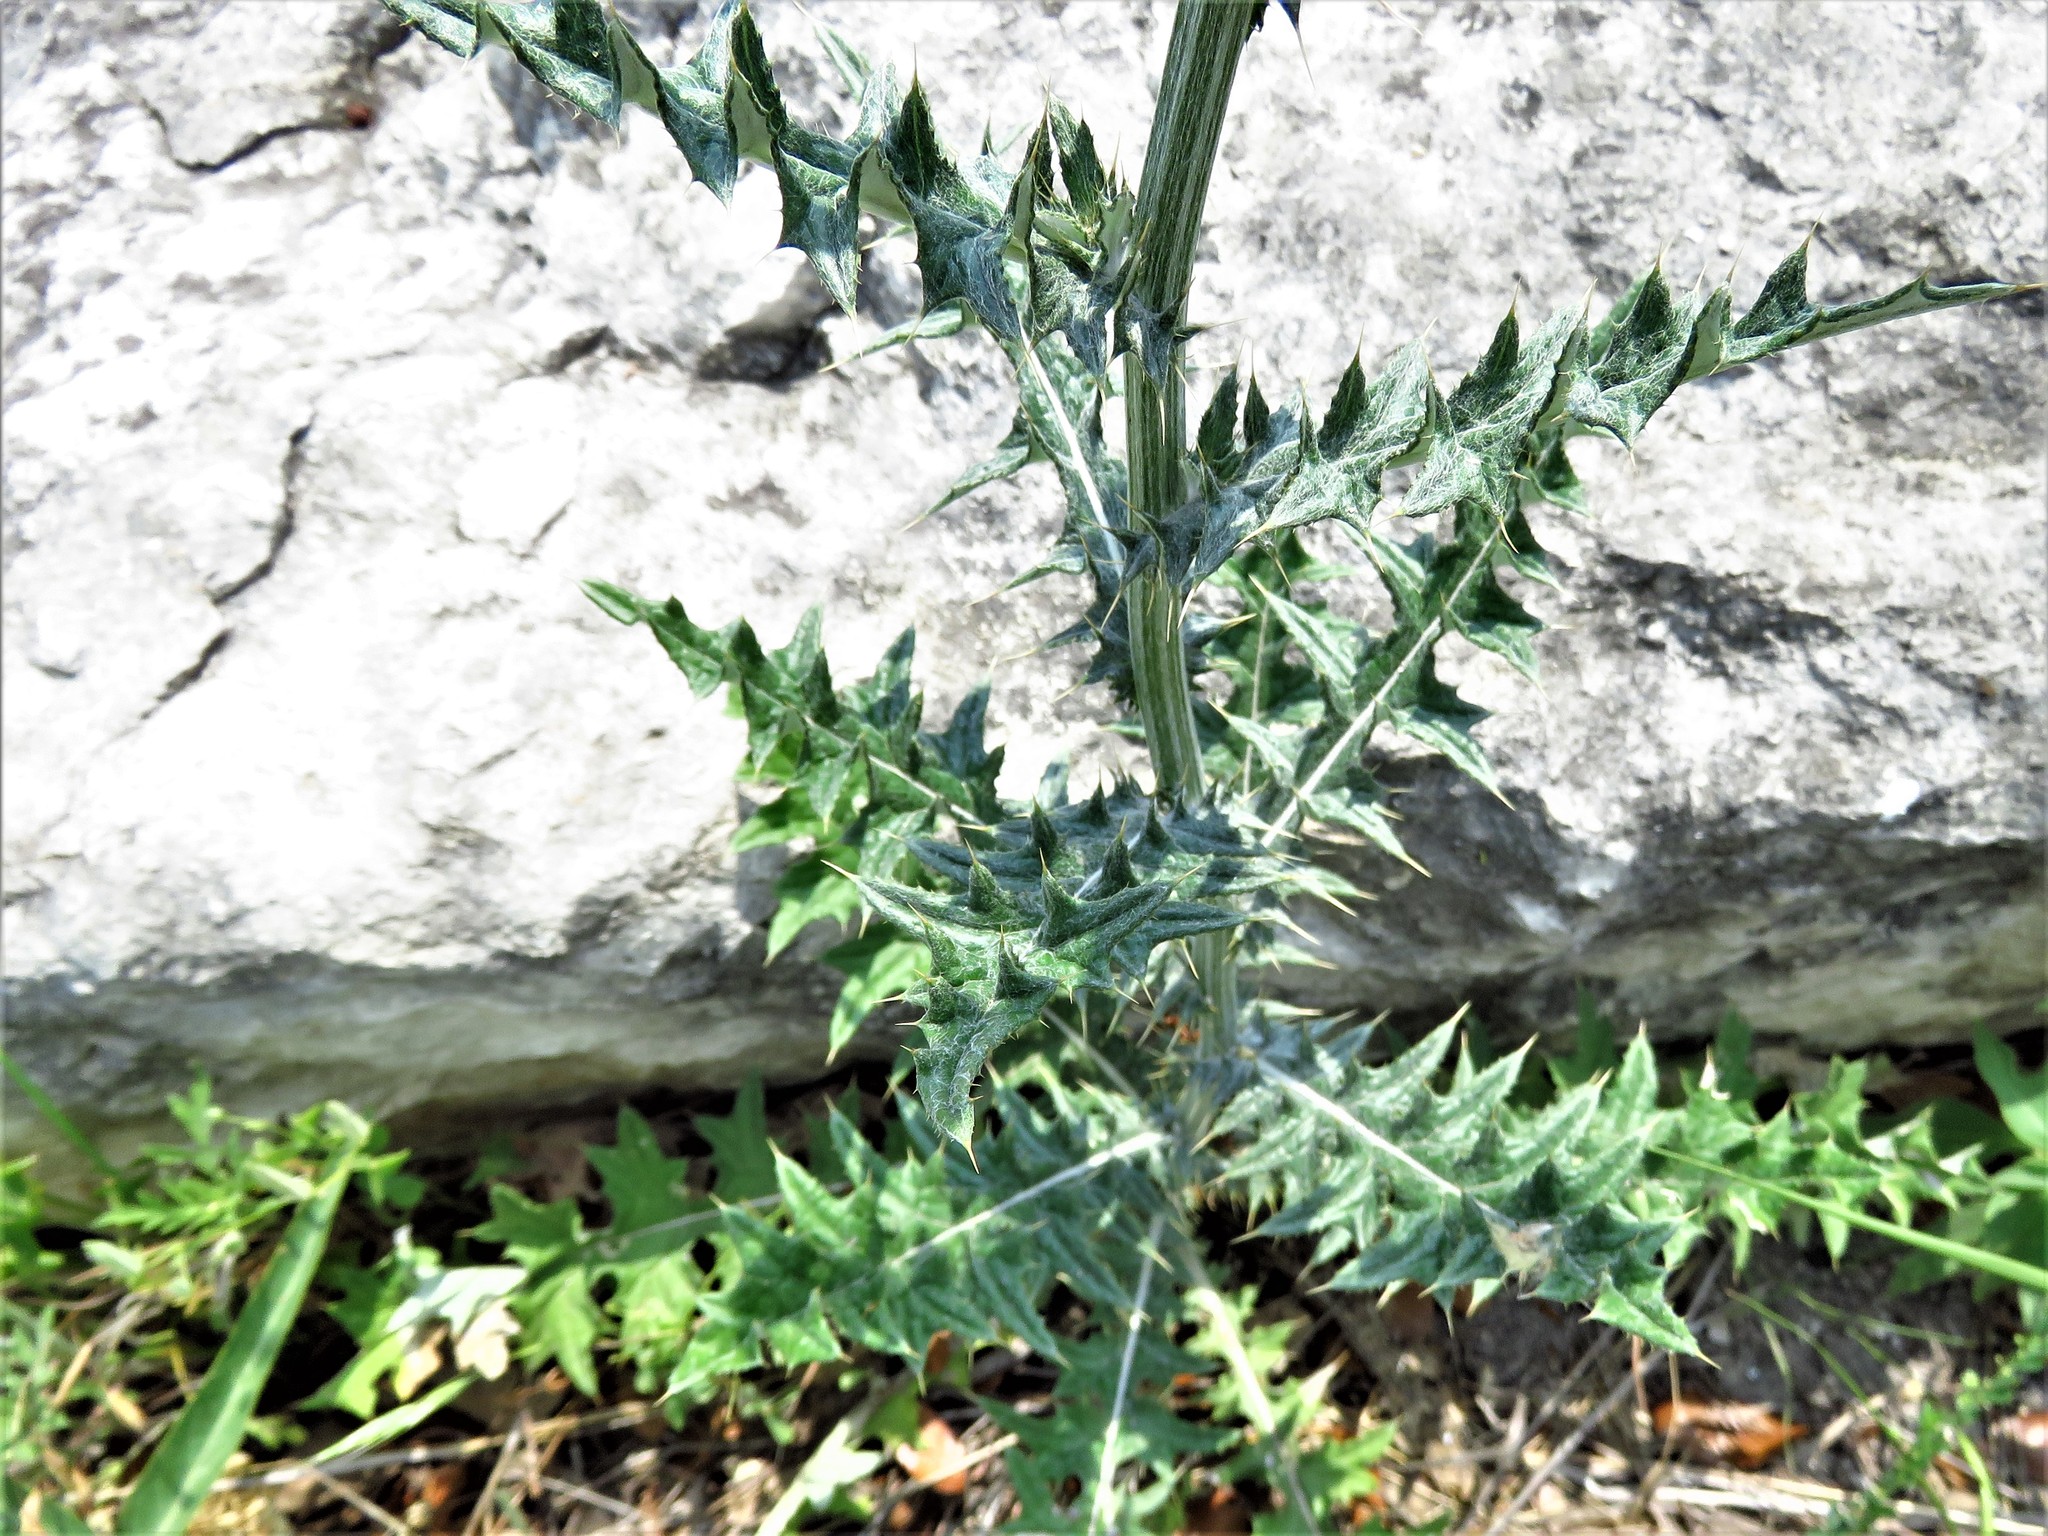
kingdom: Plantae
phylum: Tracheophyta
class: Magnoliopsida
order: Asterales
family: Asteraceae
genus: Cirsium
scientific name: Cirsium texanum
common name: Texas purple thistle
